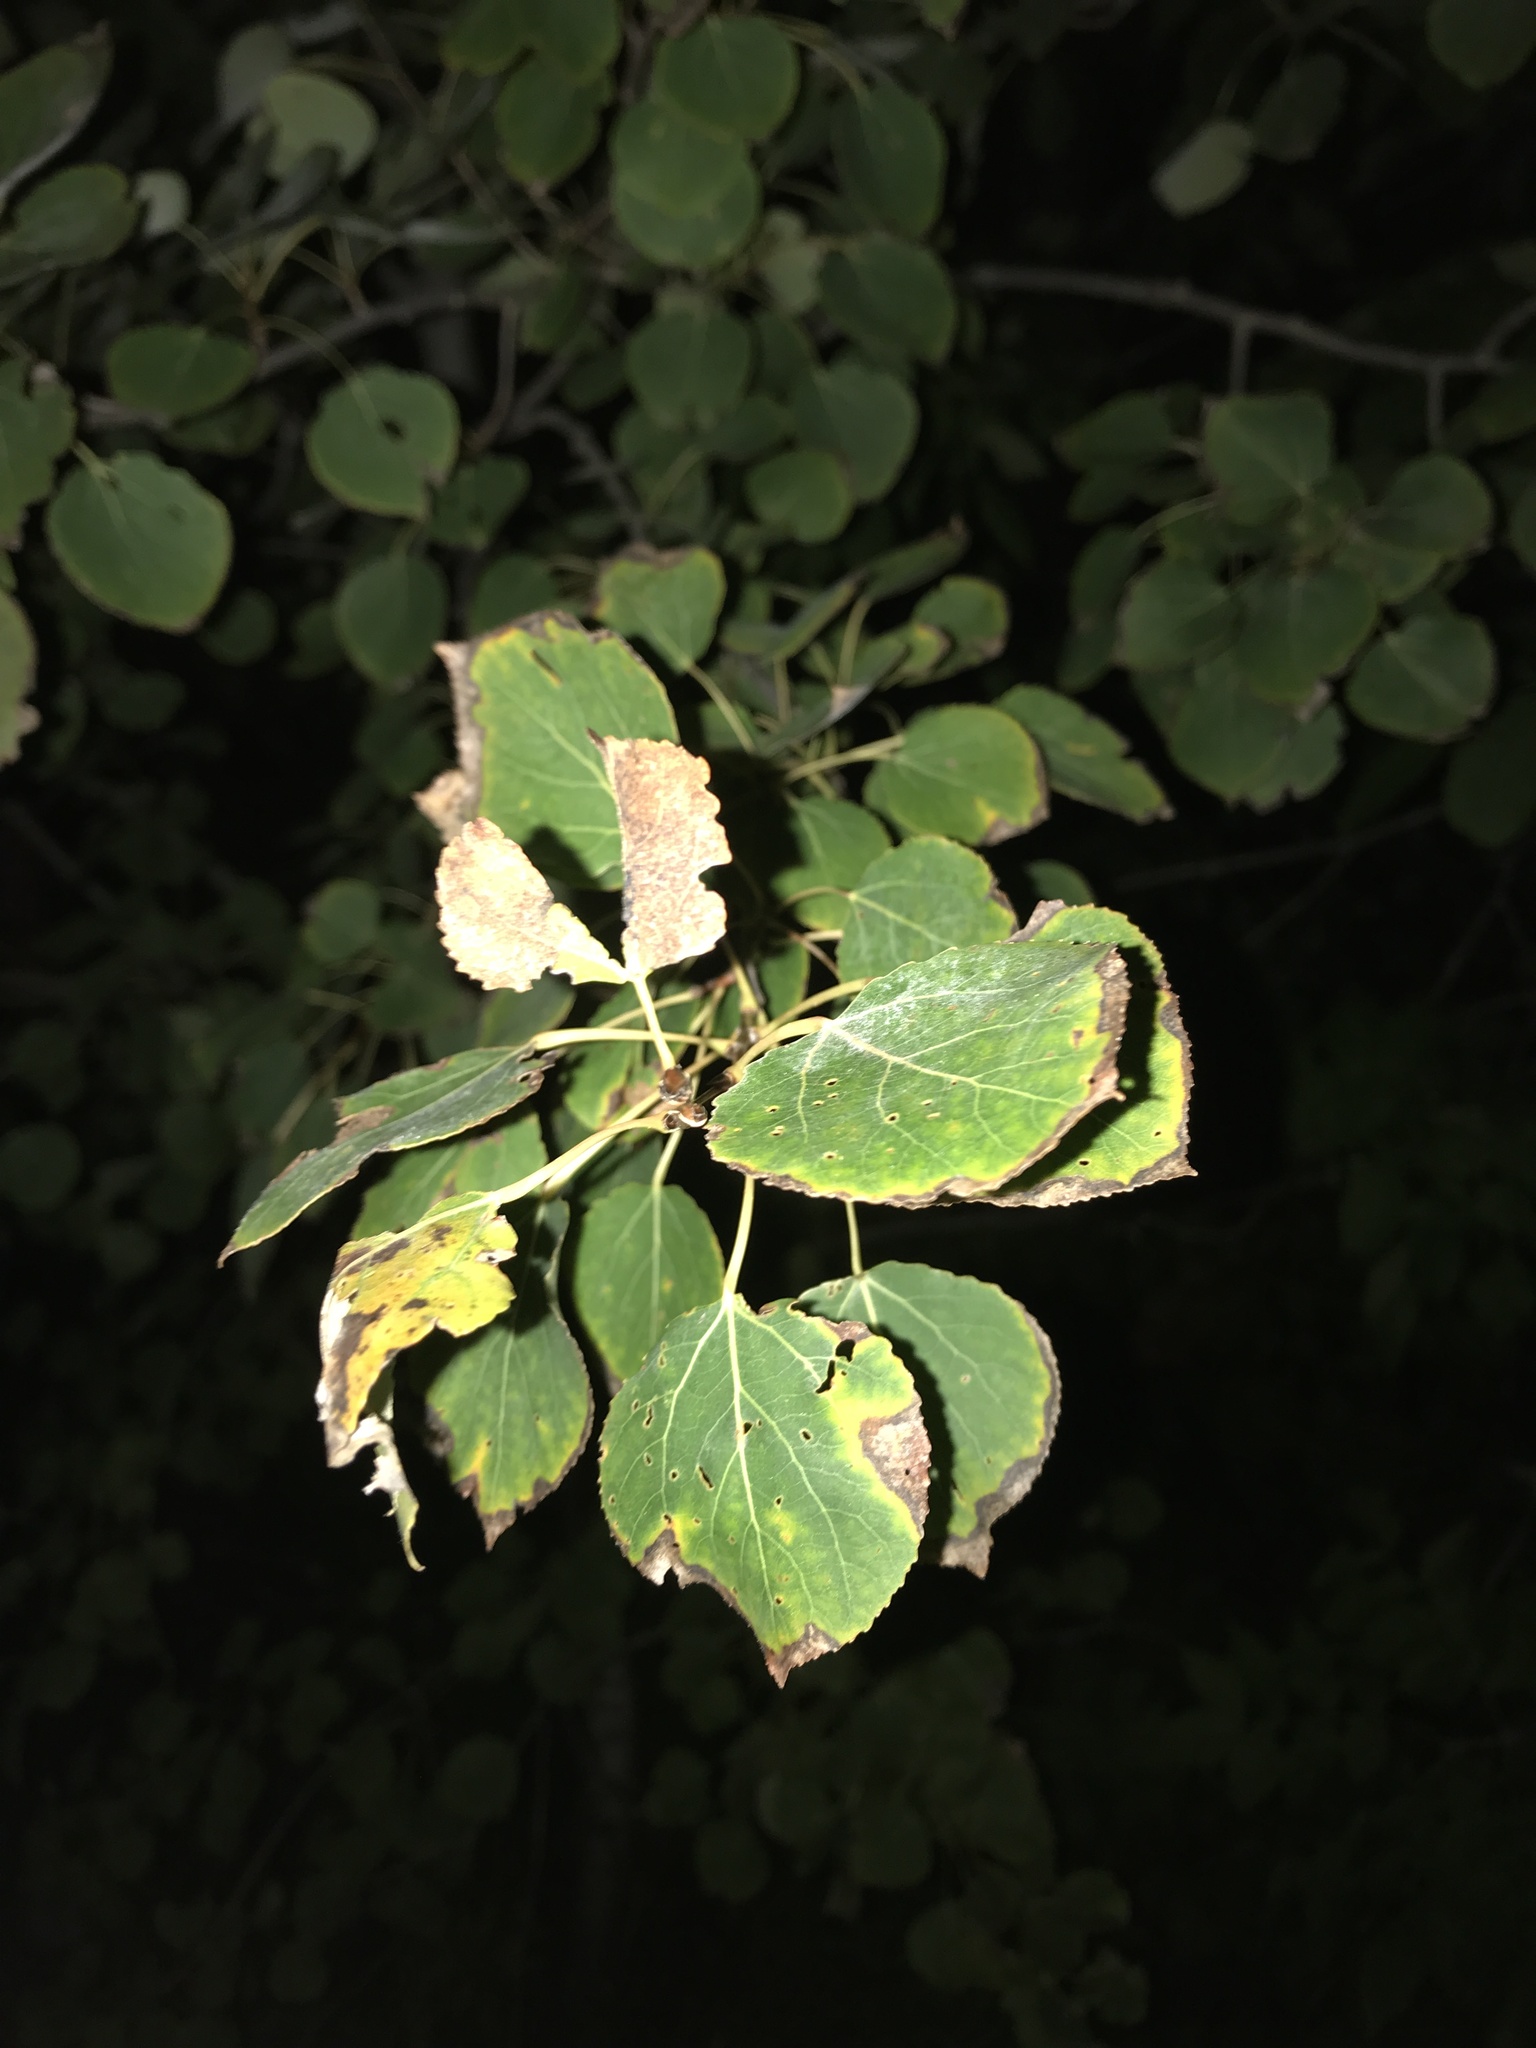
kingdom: Plantae
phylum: Tracheophyta
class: Magnoliopsida
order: Malpighiales
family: Salicaceae
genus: Populus
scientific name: Populus tremuloides
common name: Quaking aspen
